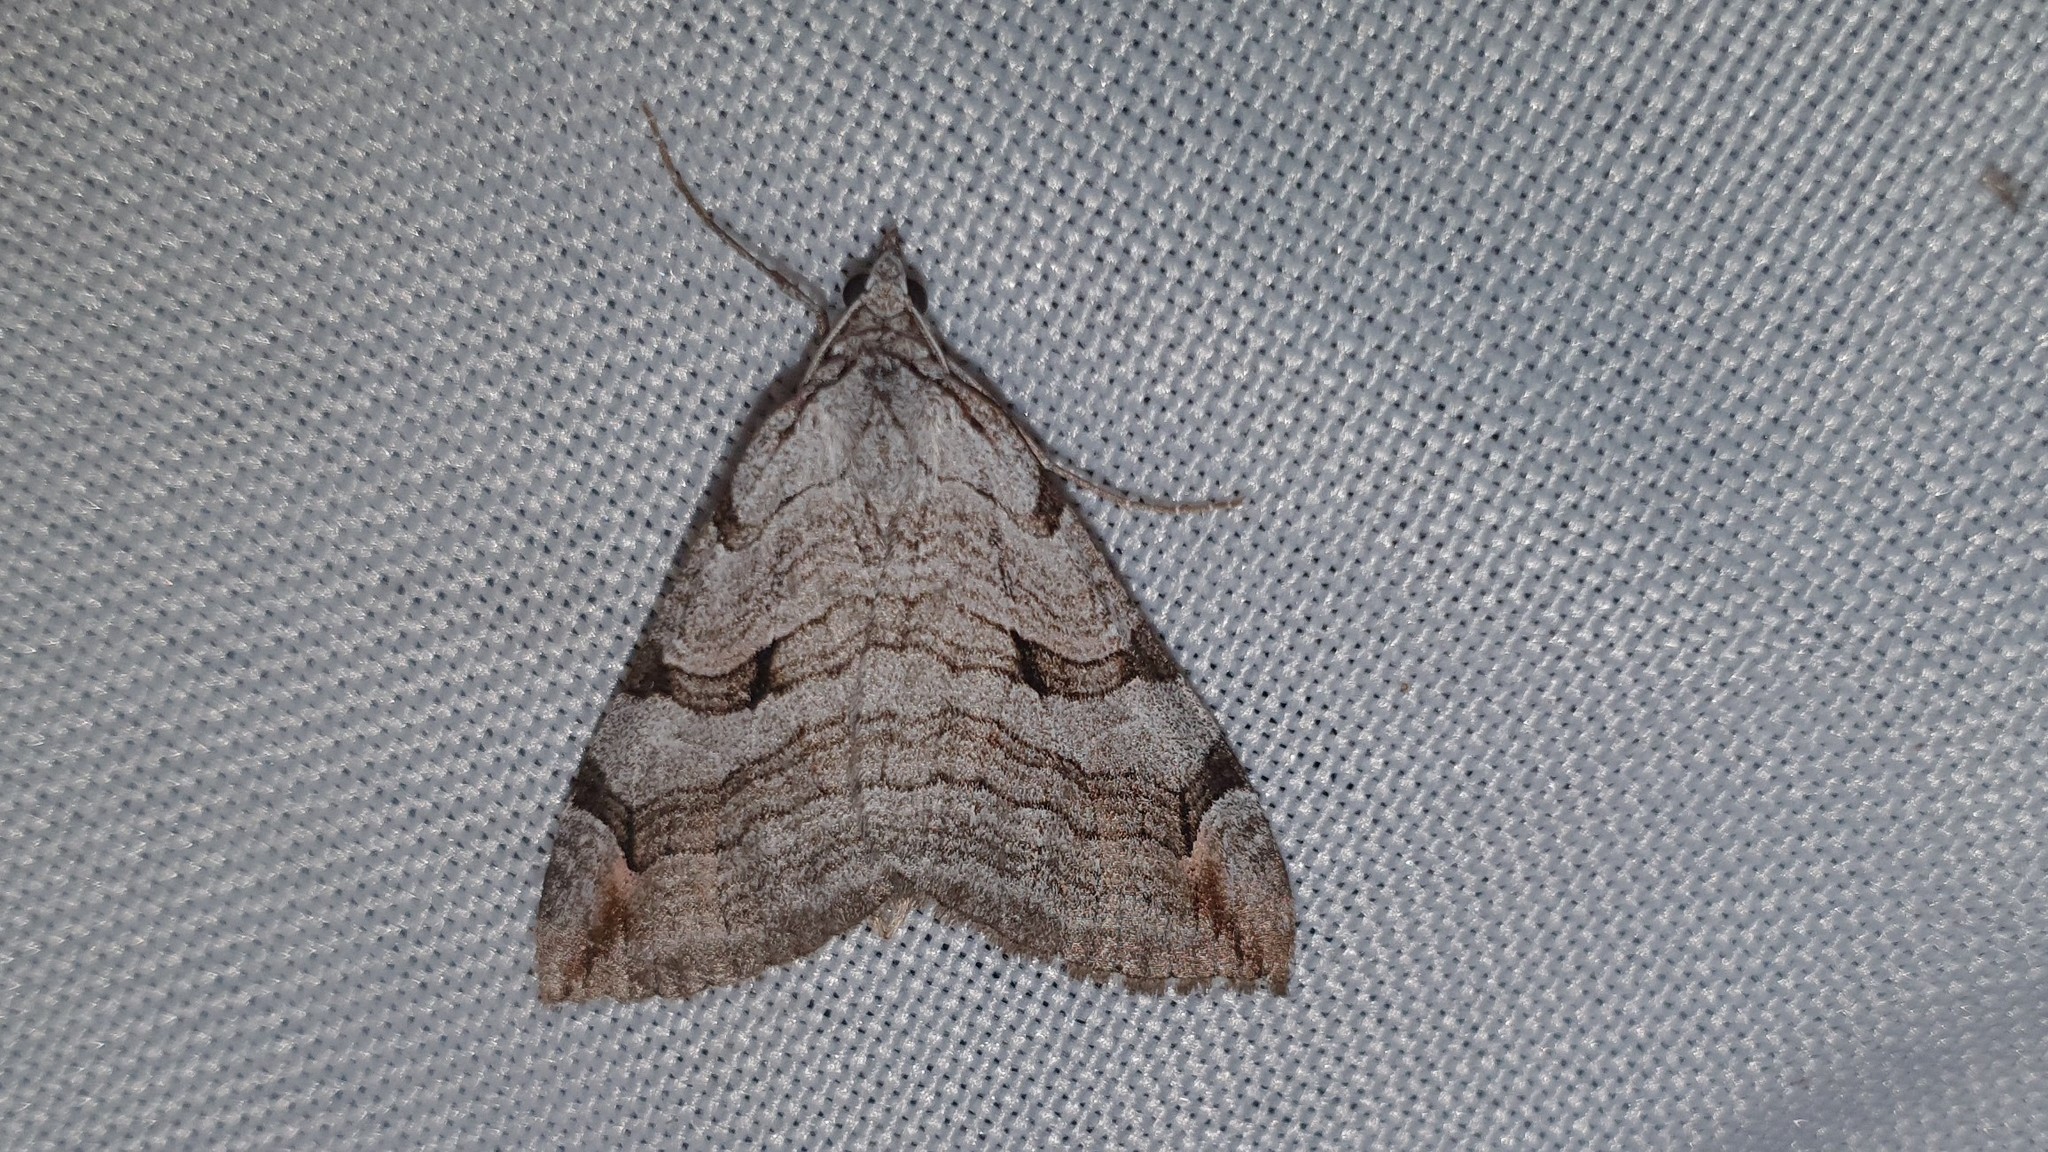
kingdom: Animalia
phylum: Arthropoda
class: Insecta
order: Lepidoptera
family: Geometridae
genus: Aplocera
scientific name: Aplocera plagiata
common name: Treble-bar
